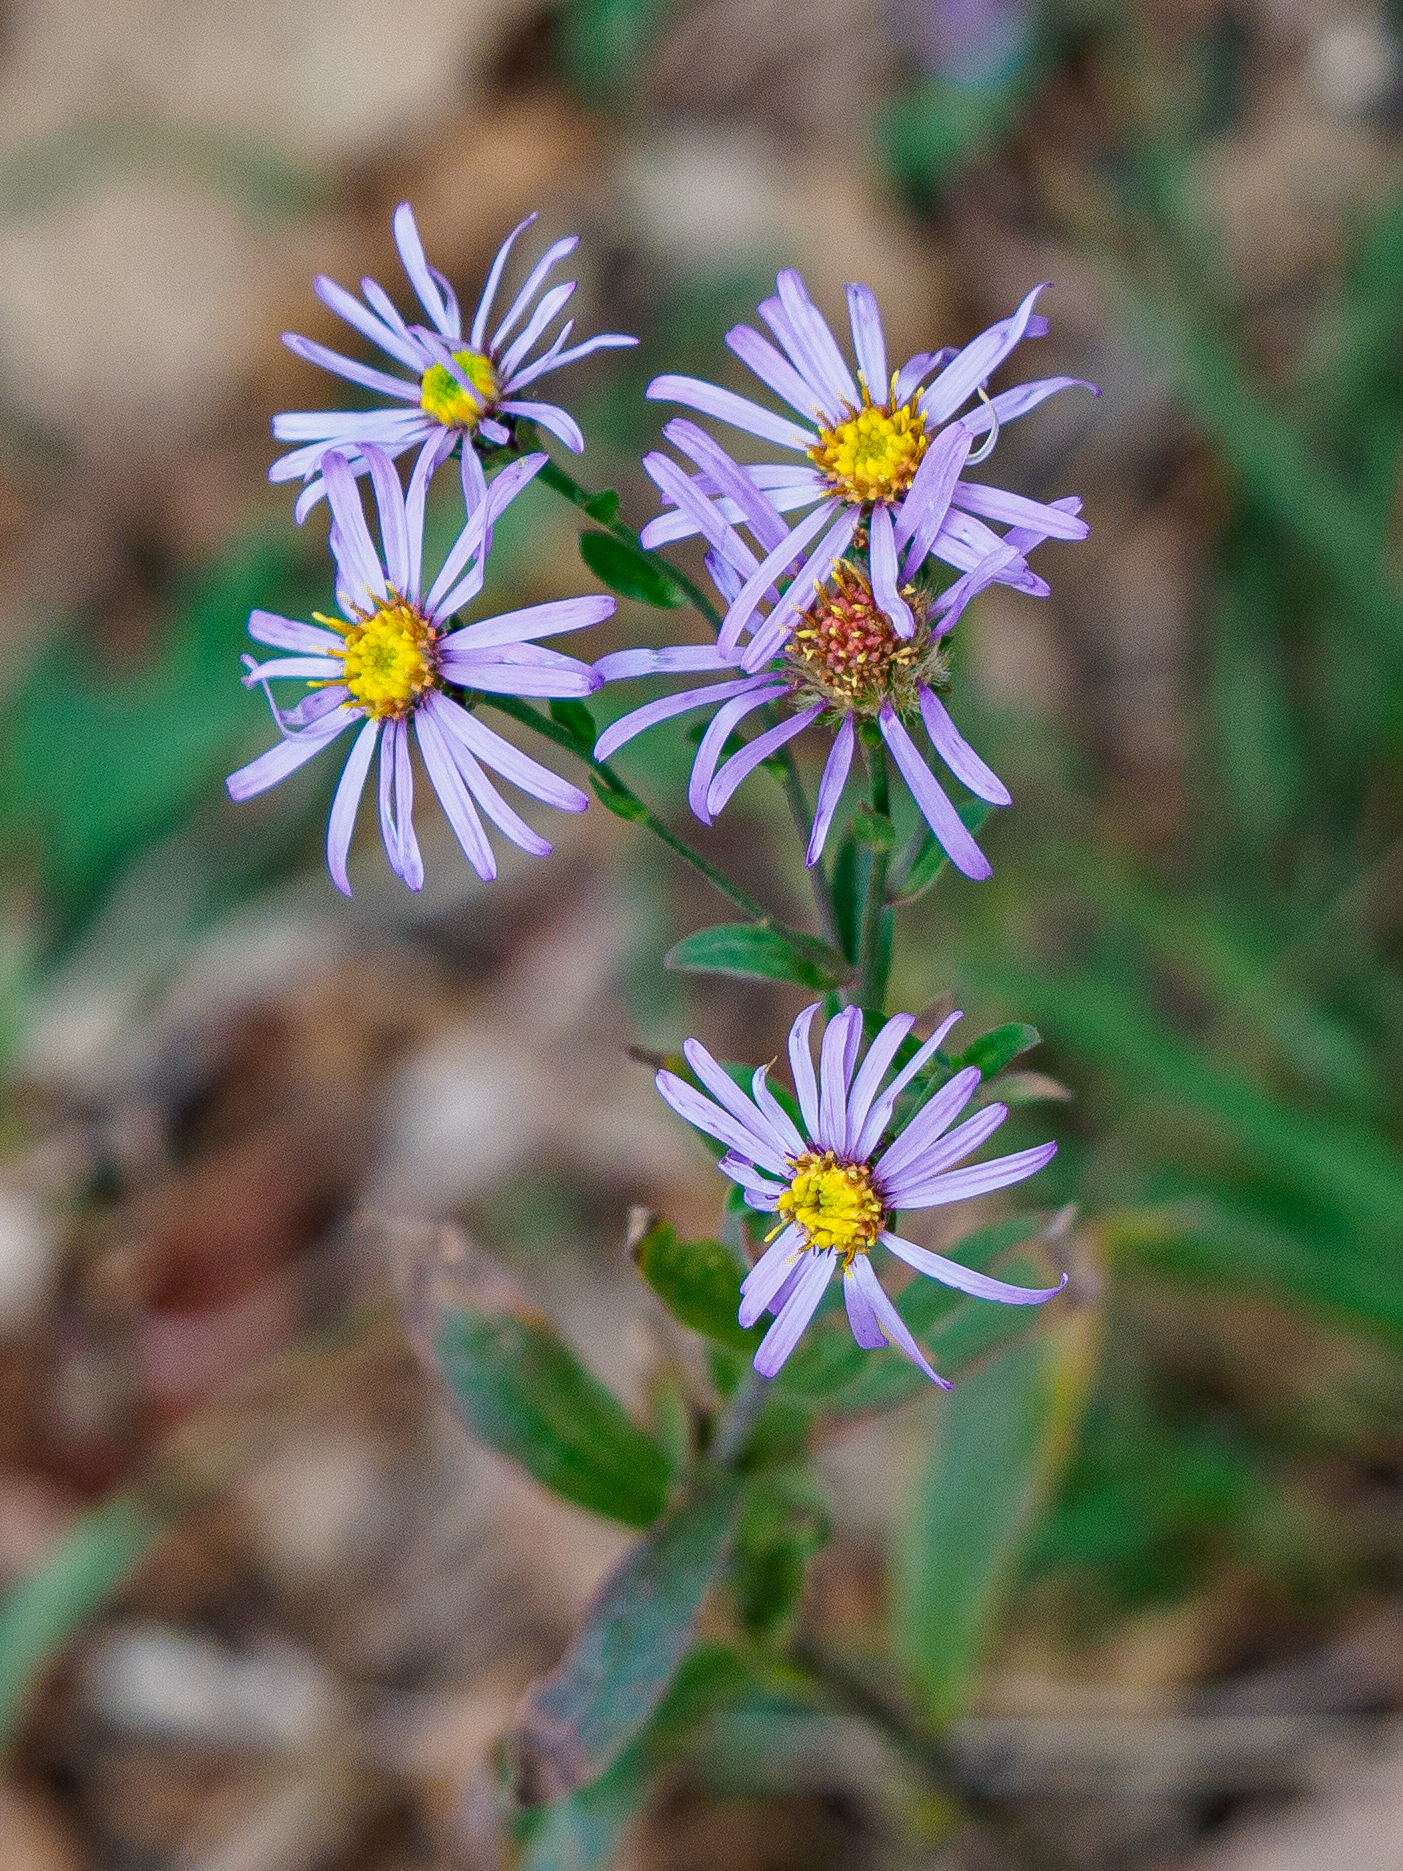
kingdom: Plantae
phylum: Tracheophyta
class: Magnoliopsida
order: Asterales
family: Asteraceae
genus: Aster
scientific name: Aster amellus
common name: European michaelmas daisy
